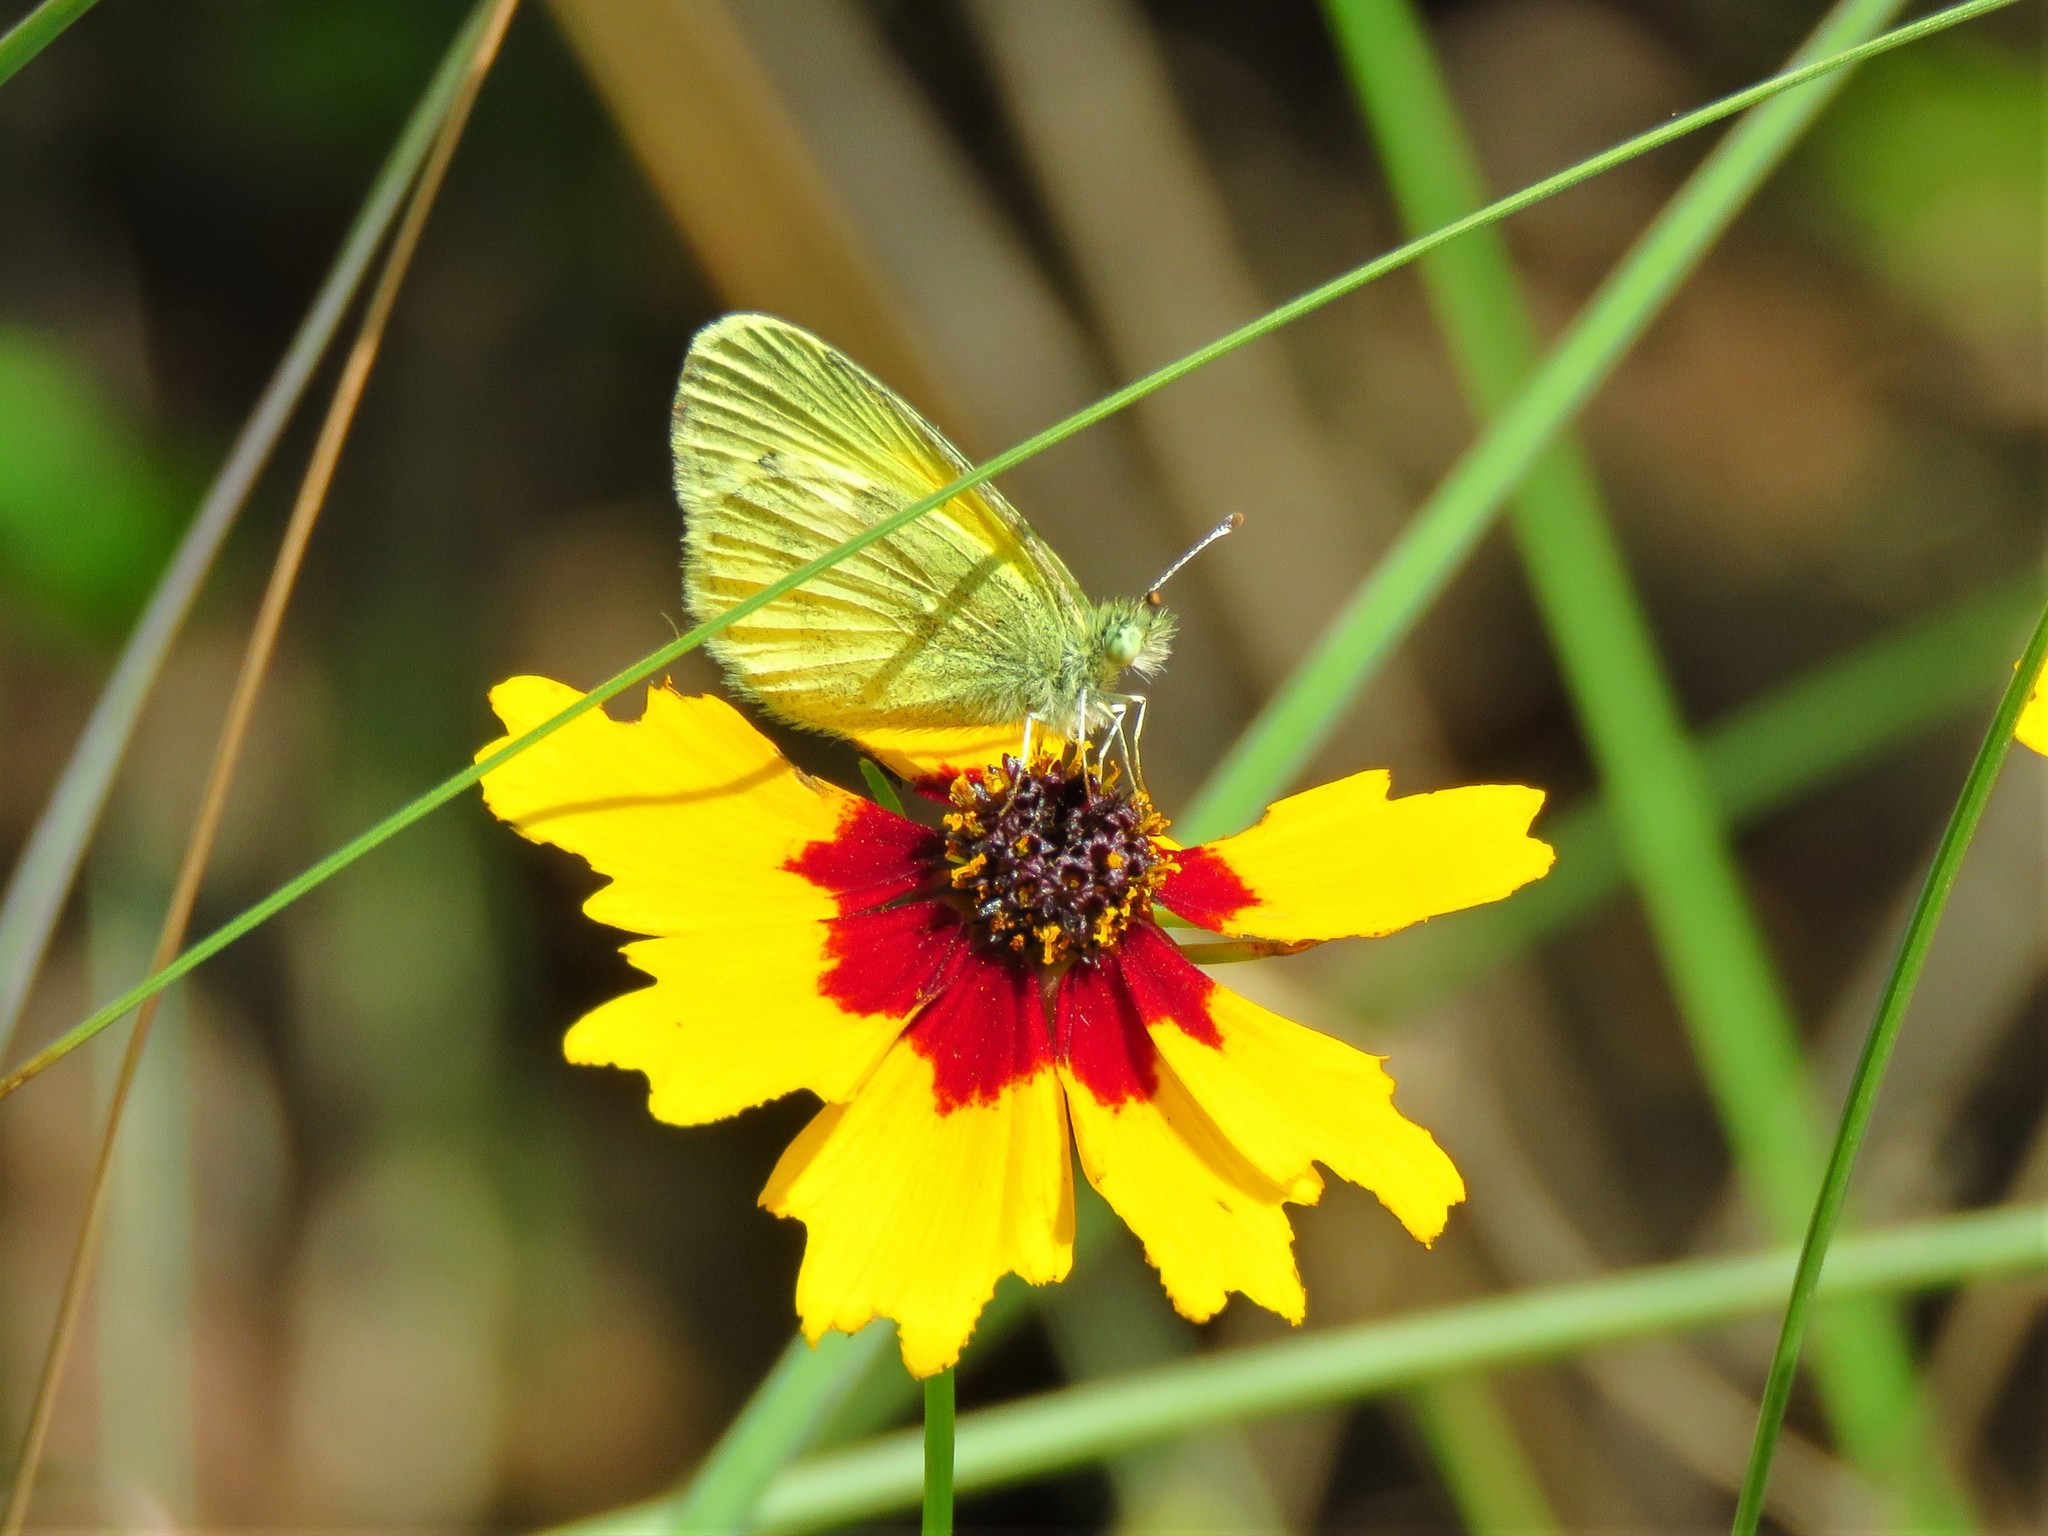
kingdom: Animalia
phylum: Arthropoda
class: Insecta
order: Lepidoptera
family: Pieridae
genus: Nathalis
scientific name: Nathalis iole
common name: Dainty sulphur
